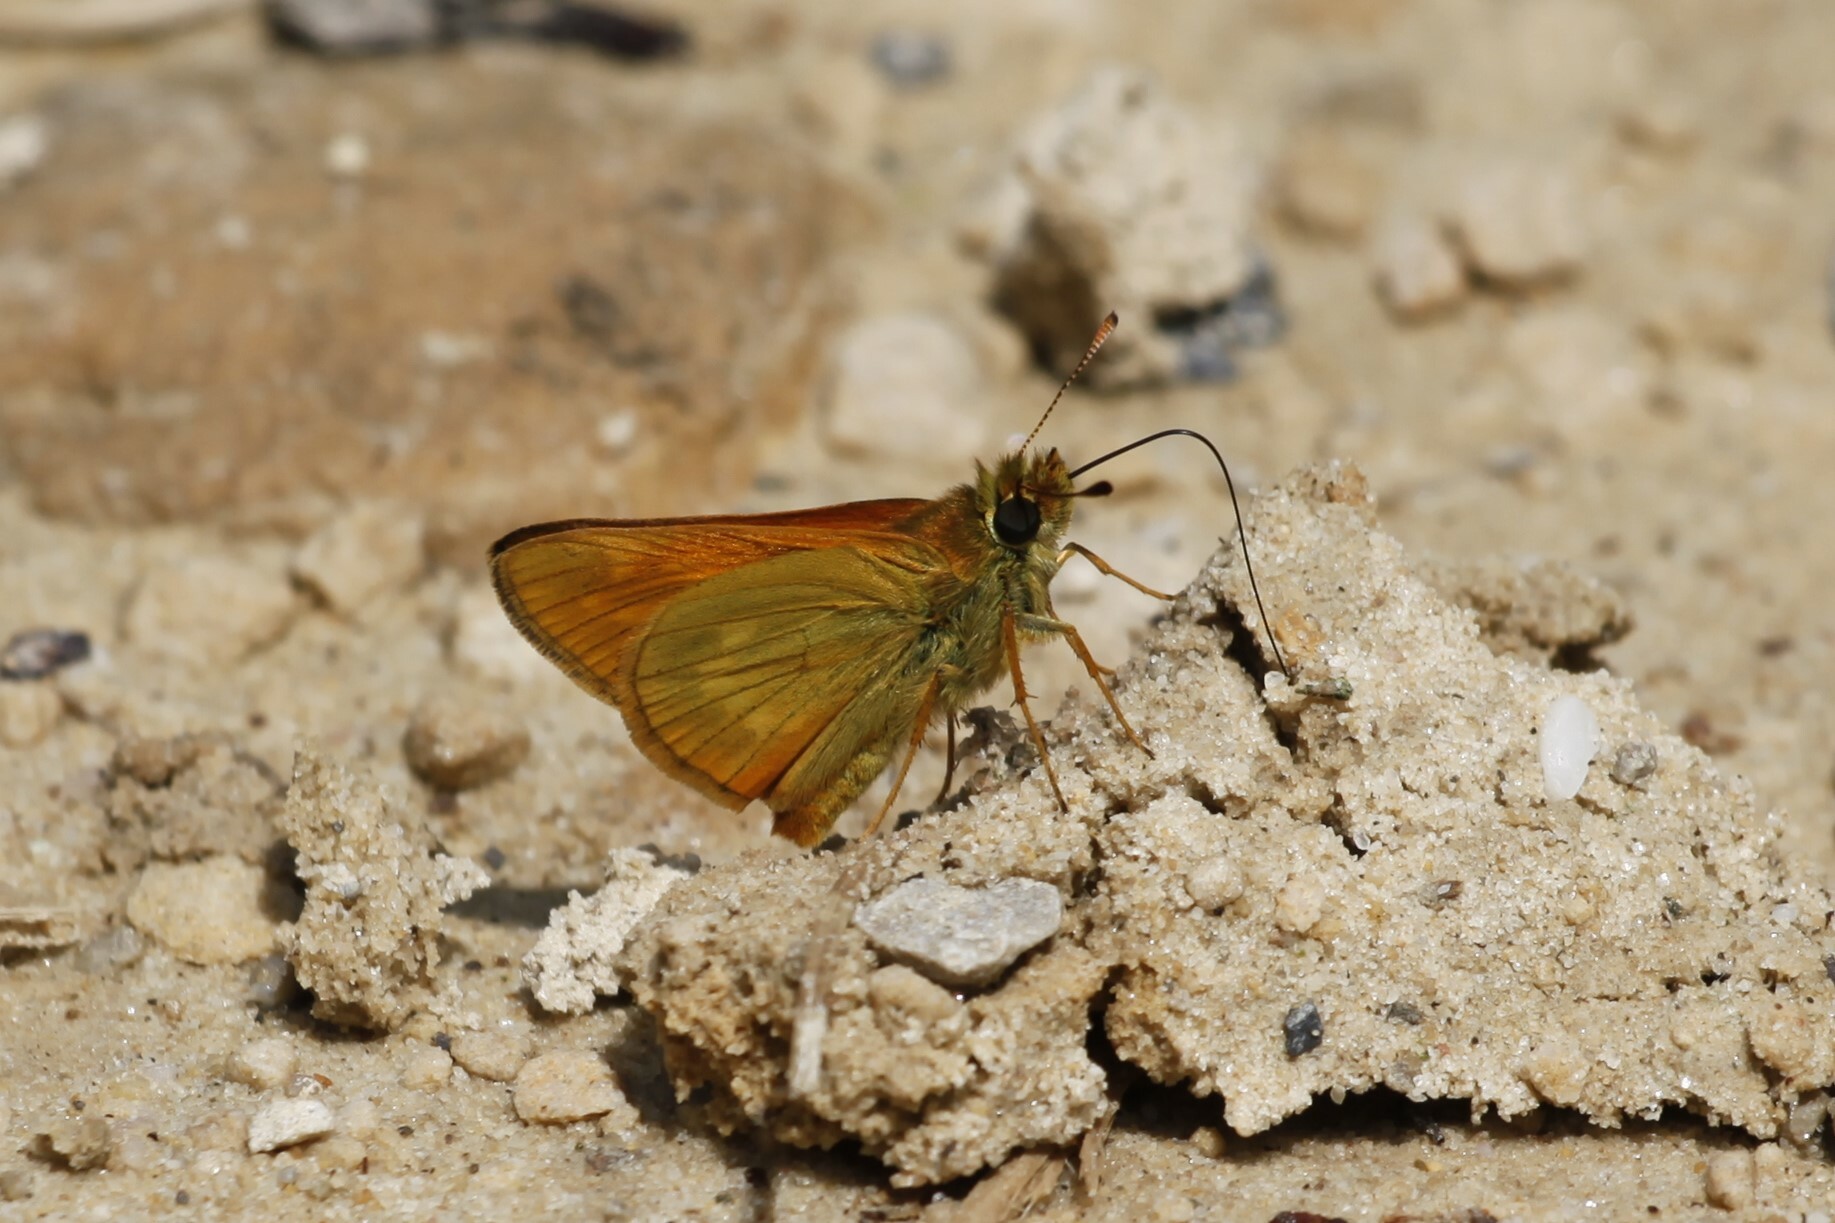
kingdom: Animalia
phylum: Arthropoda
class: Insecta
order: Lepidoptera
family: Hesperiidae
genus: Ochlodes
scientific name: Ochlodes venata
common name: Large skipper
